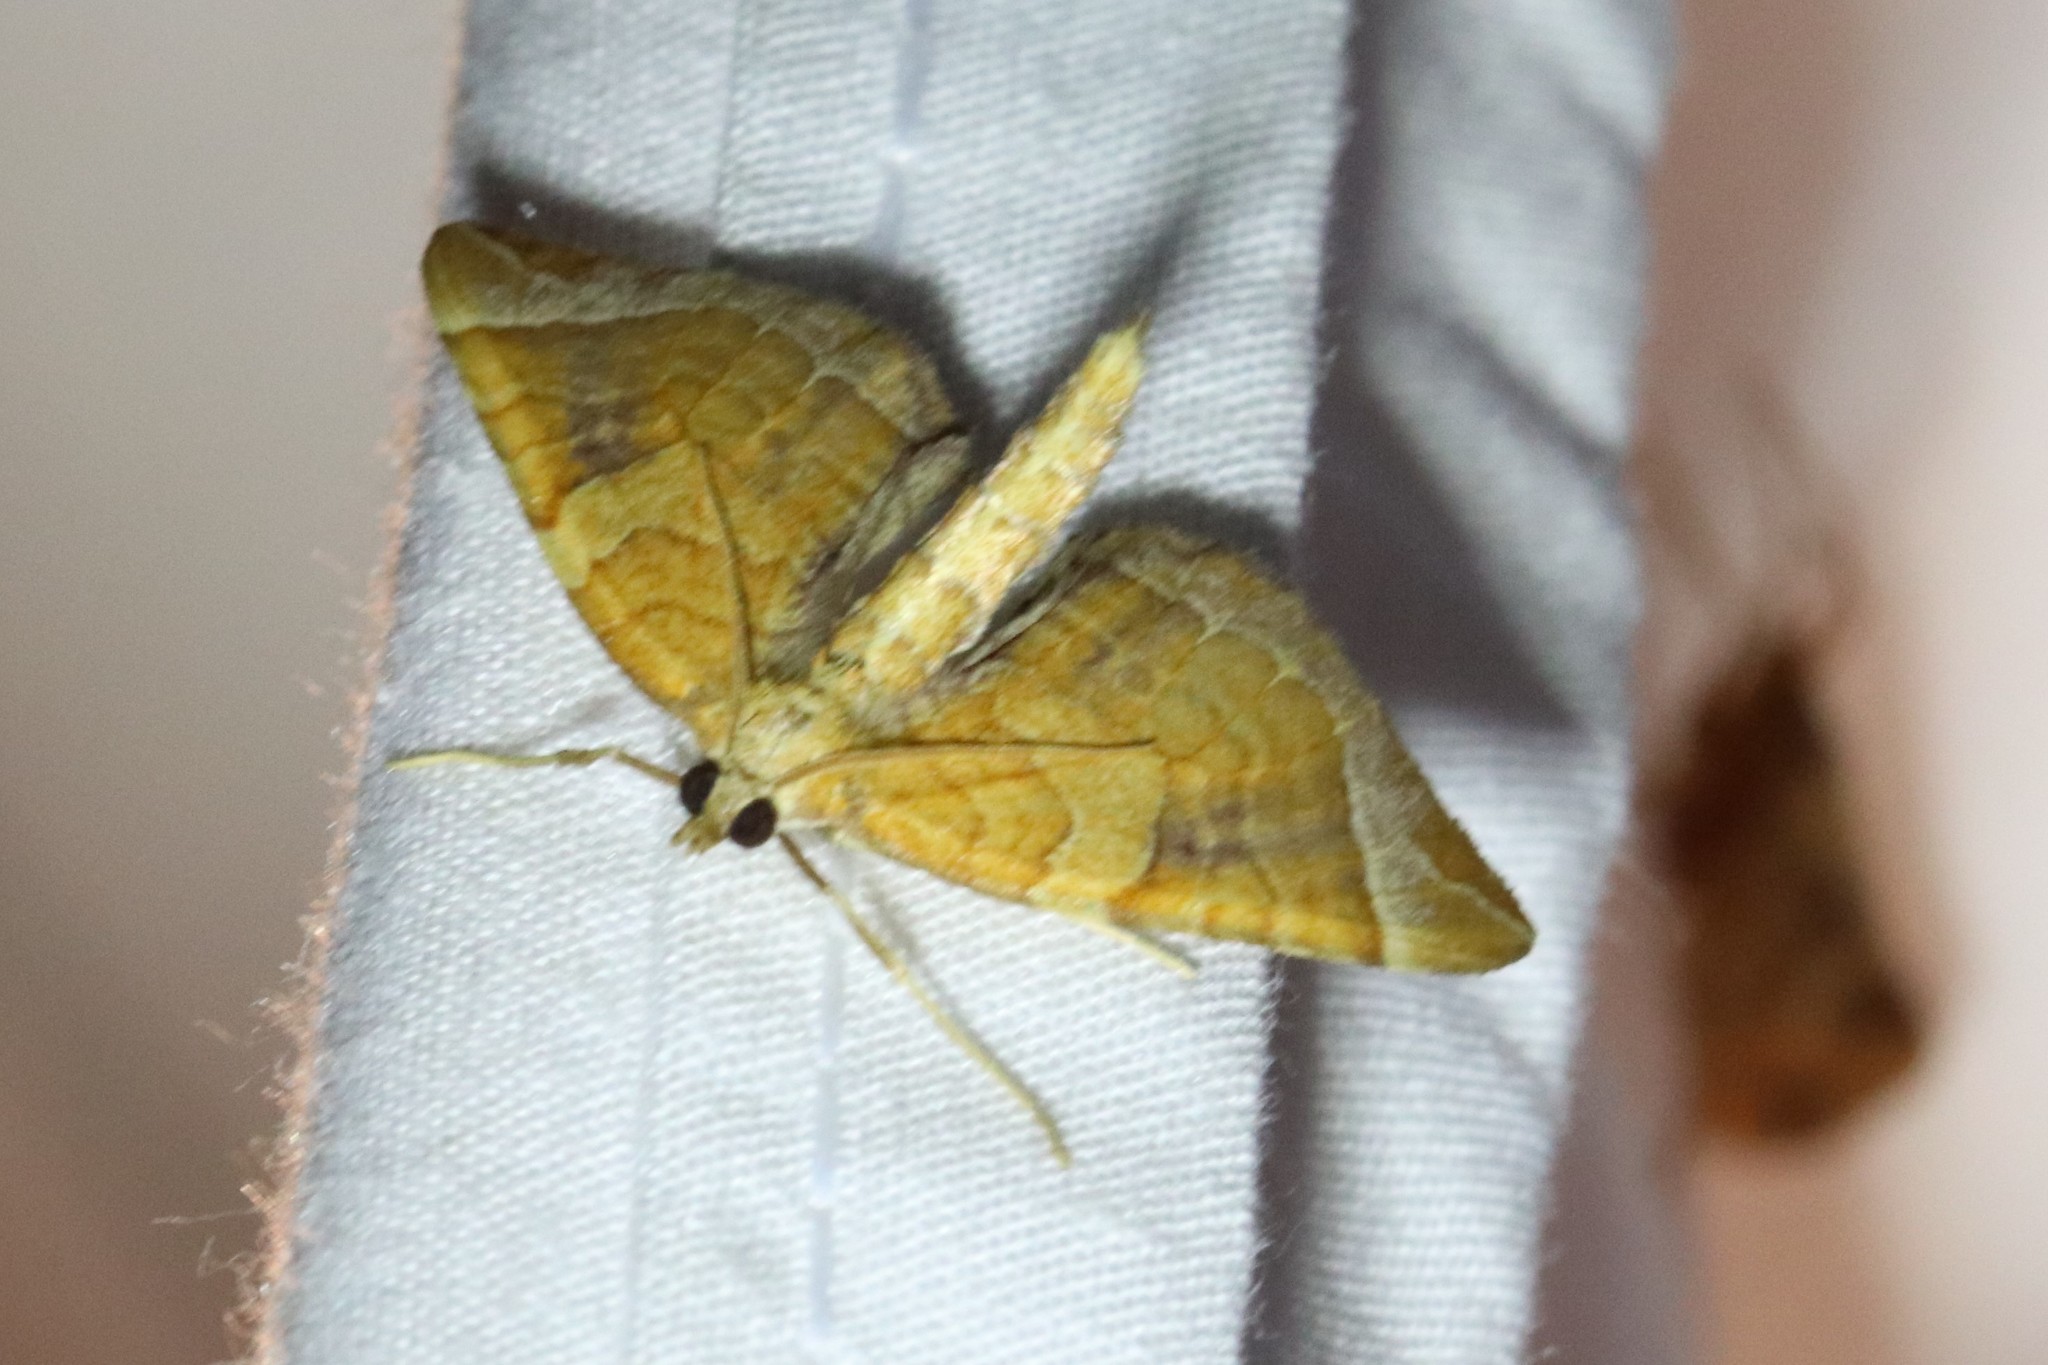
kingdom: Animalia
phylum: Arthropoda
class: Insecta
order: Lepidoptera
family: Geometridae
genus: Eulithis
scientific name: Eulithis testata
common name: Chevron
